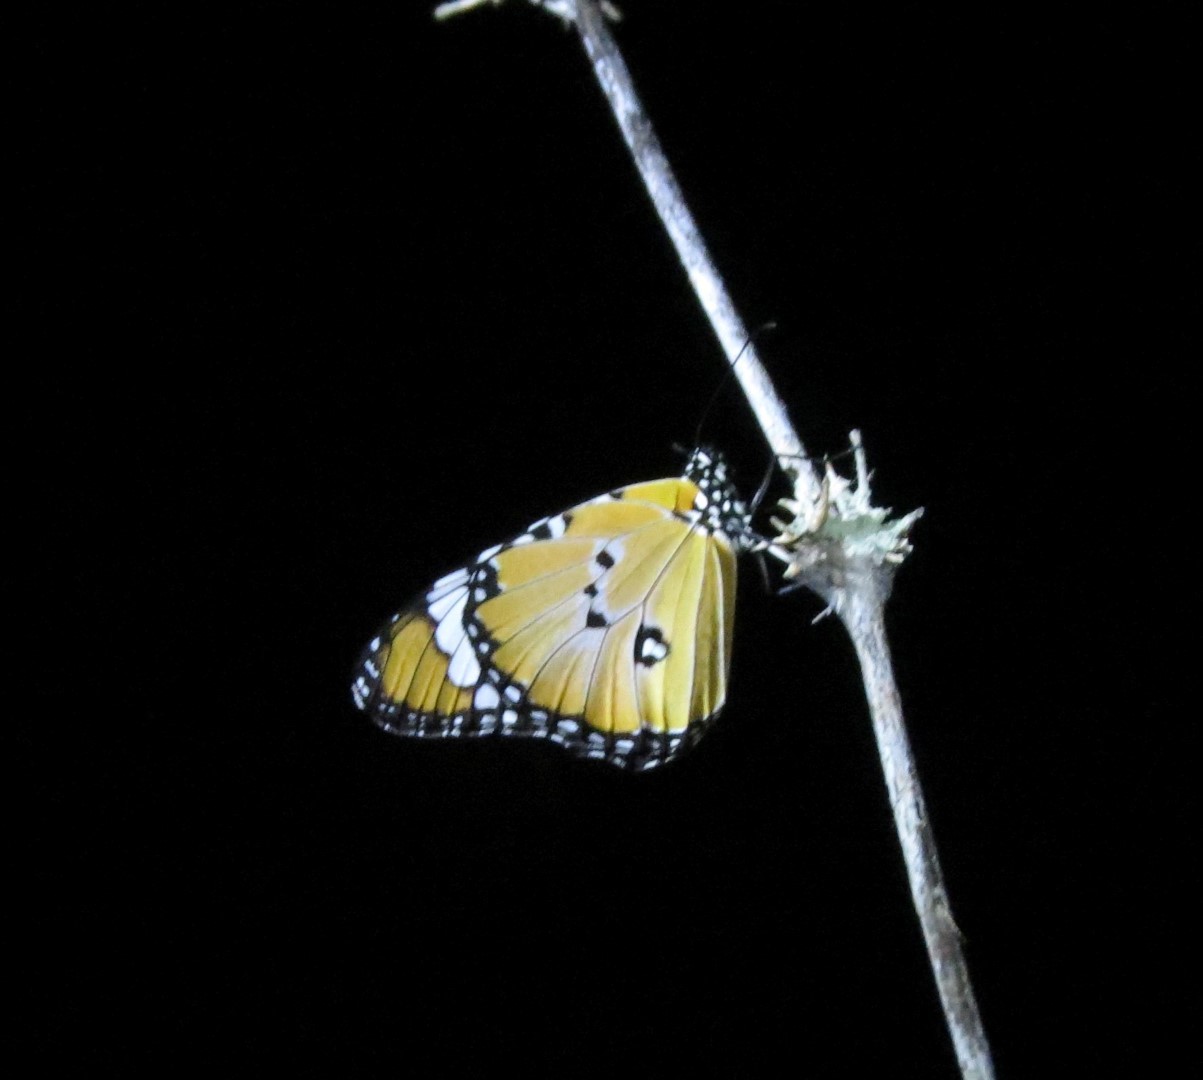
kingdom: Animalia
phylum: Arthropoda
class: Insecta
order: Lepidoptera
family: Nymphalidae
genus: Danaus
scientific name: Danaus chrysippus
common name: Plain tiger
